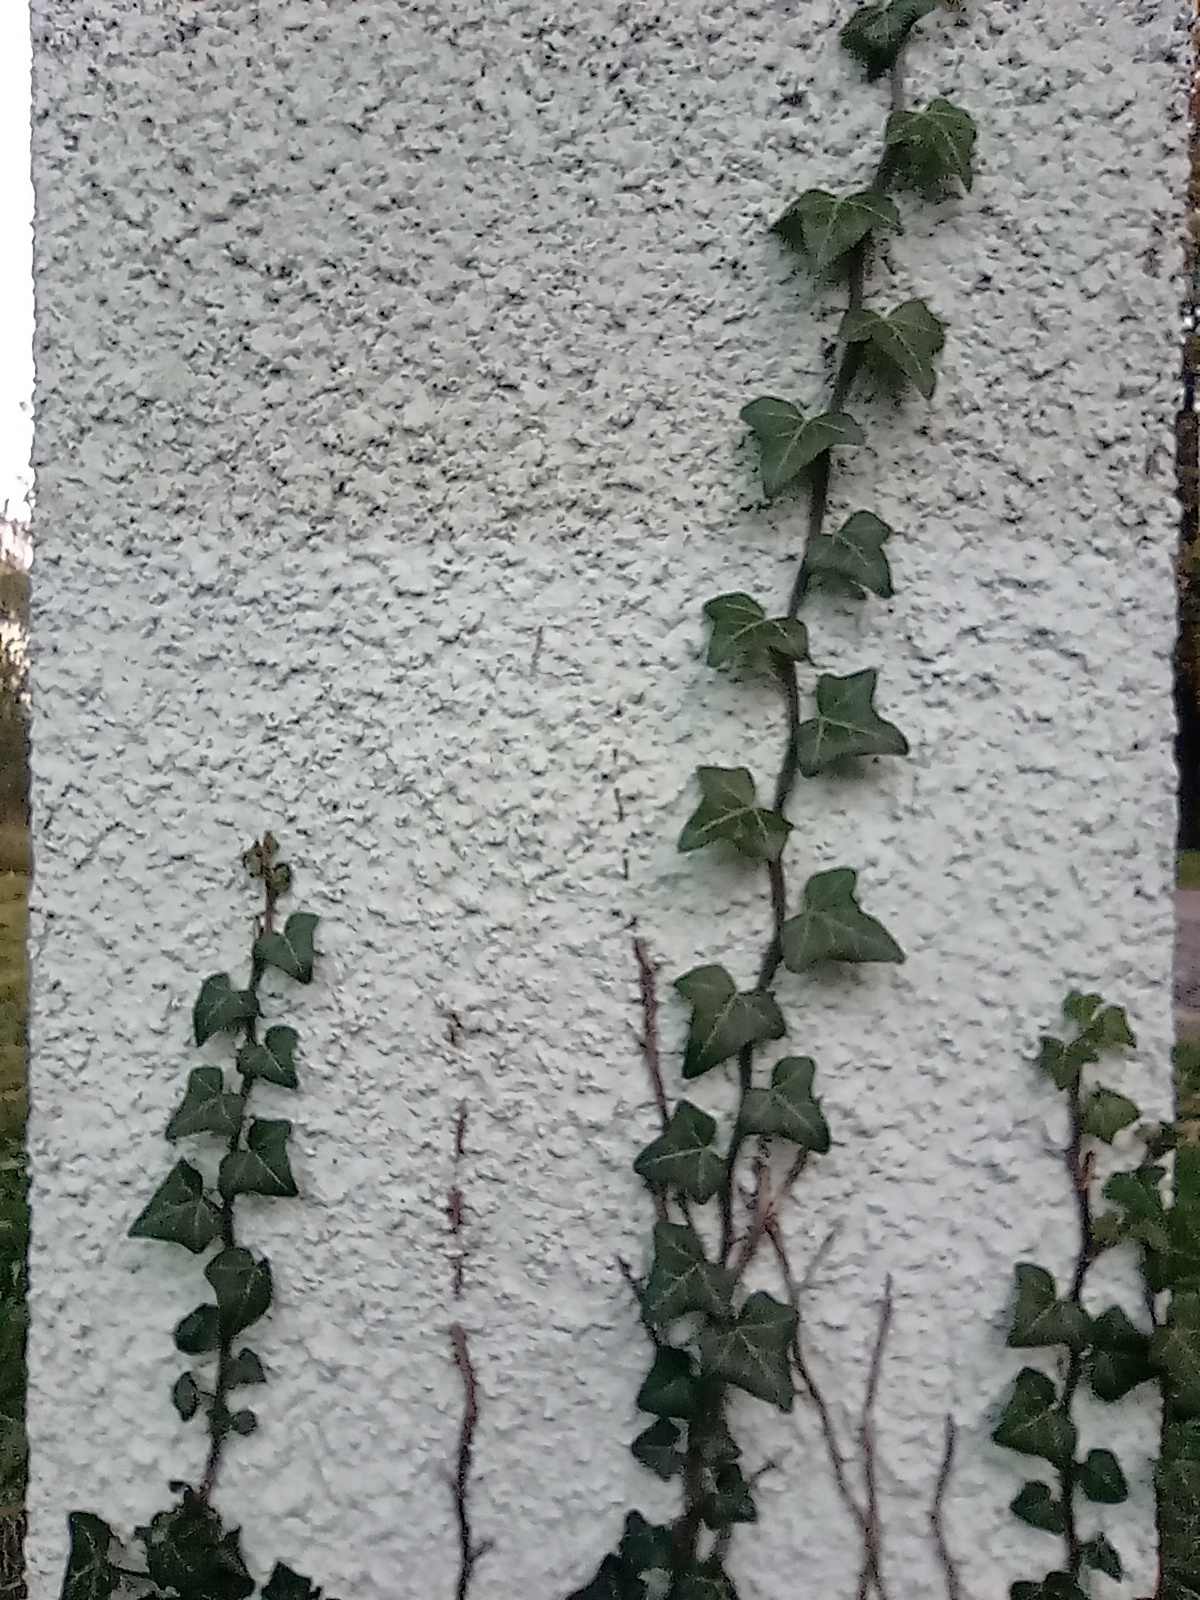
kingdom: Plantae
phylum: Tracheophyta
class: Magnoliopsida
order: Apiales
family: Araliaceae
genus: Hedera
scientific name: Hedera helix
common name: Ivy
